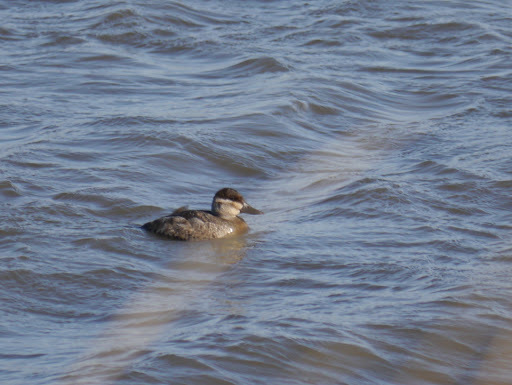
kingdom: Animalia
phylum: Chordata
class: Aves
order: Anseriformes
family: Anatidae
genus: Oxyura
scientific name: Oxyura jamaicensis
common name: Ruddy duck
